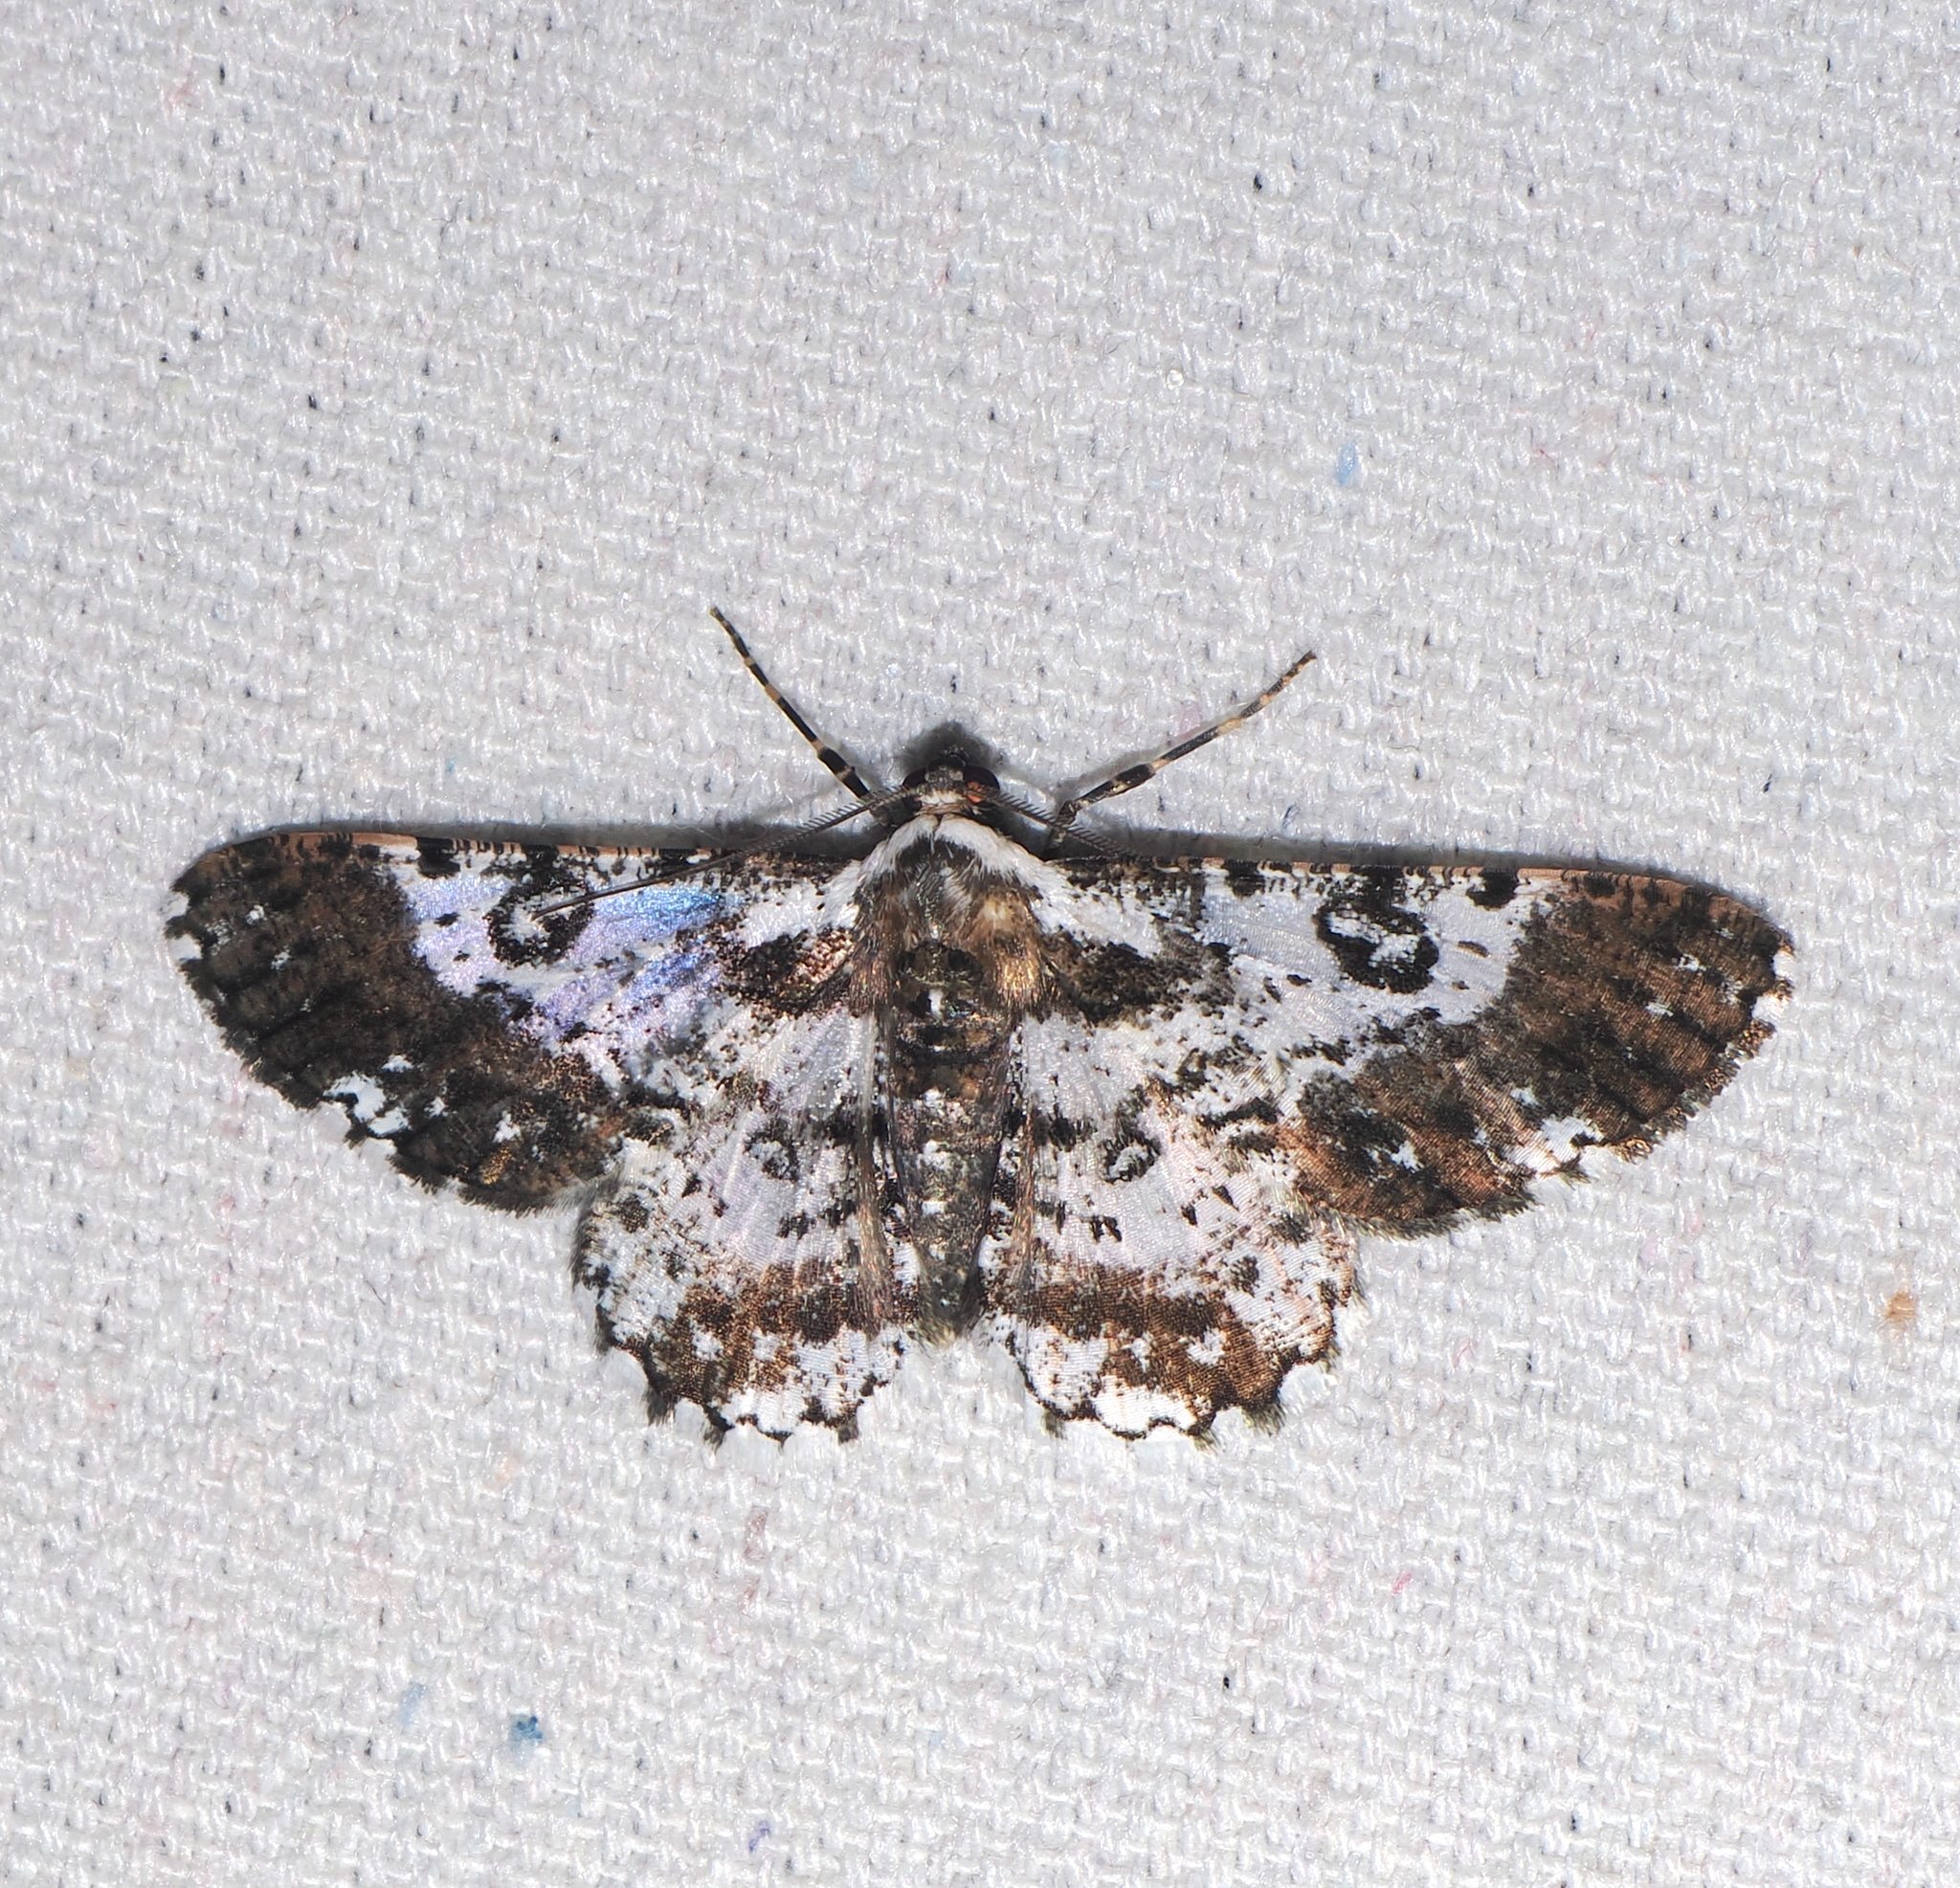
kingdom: Animalia
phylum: Arthropoda
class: Insecta
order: Lepidoptera
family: Geometridae
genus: Iridopsis
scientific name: Iridopsis validaria
